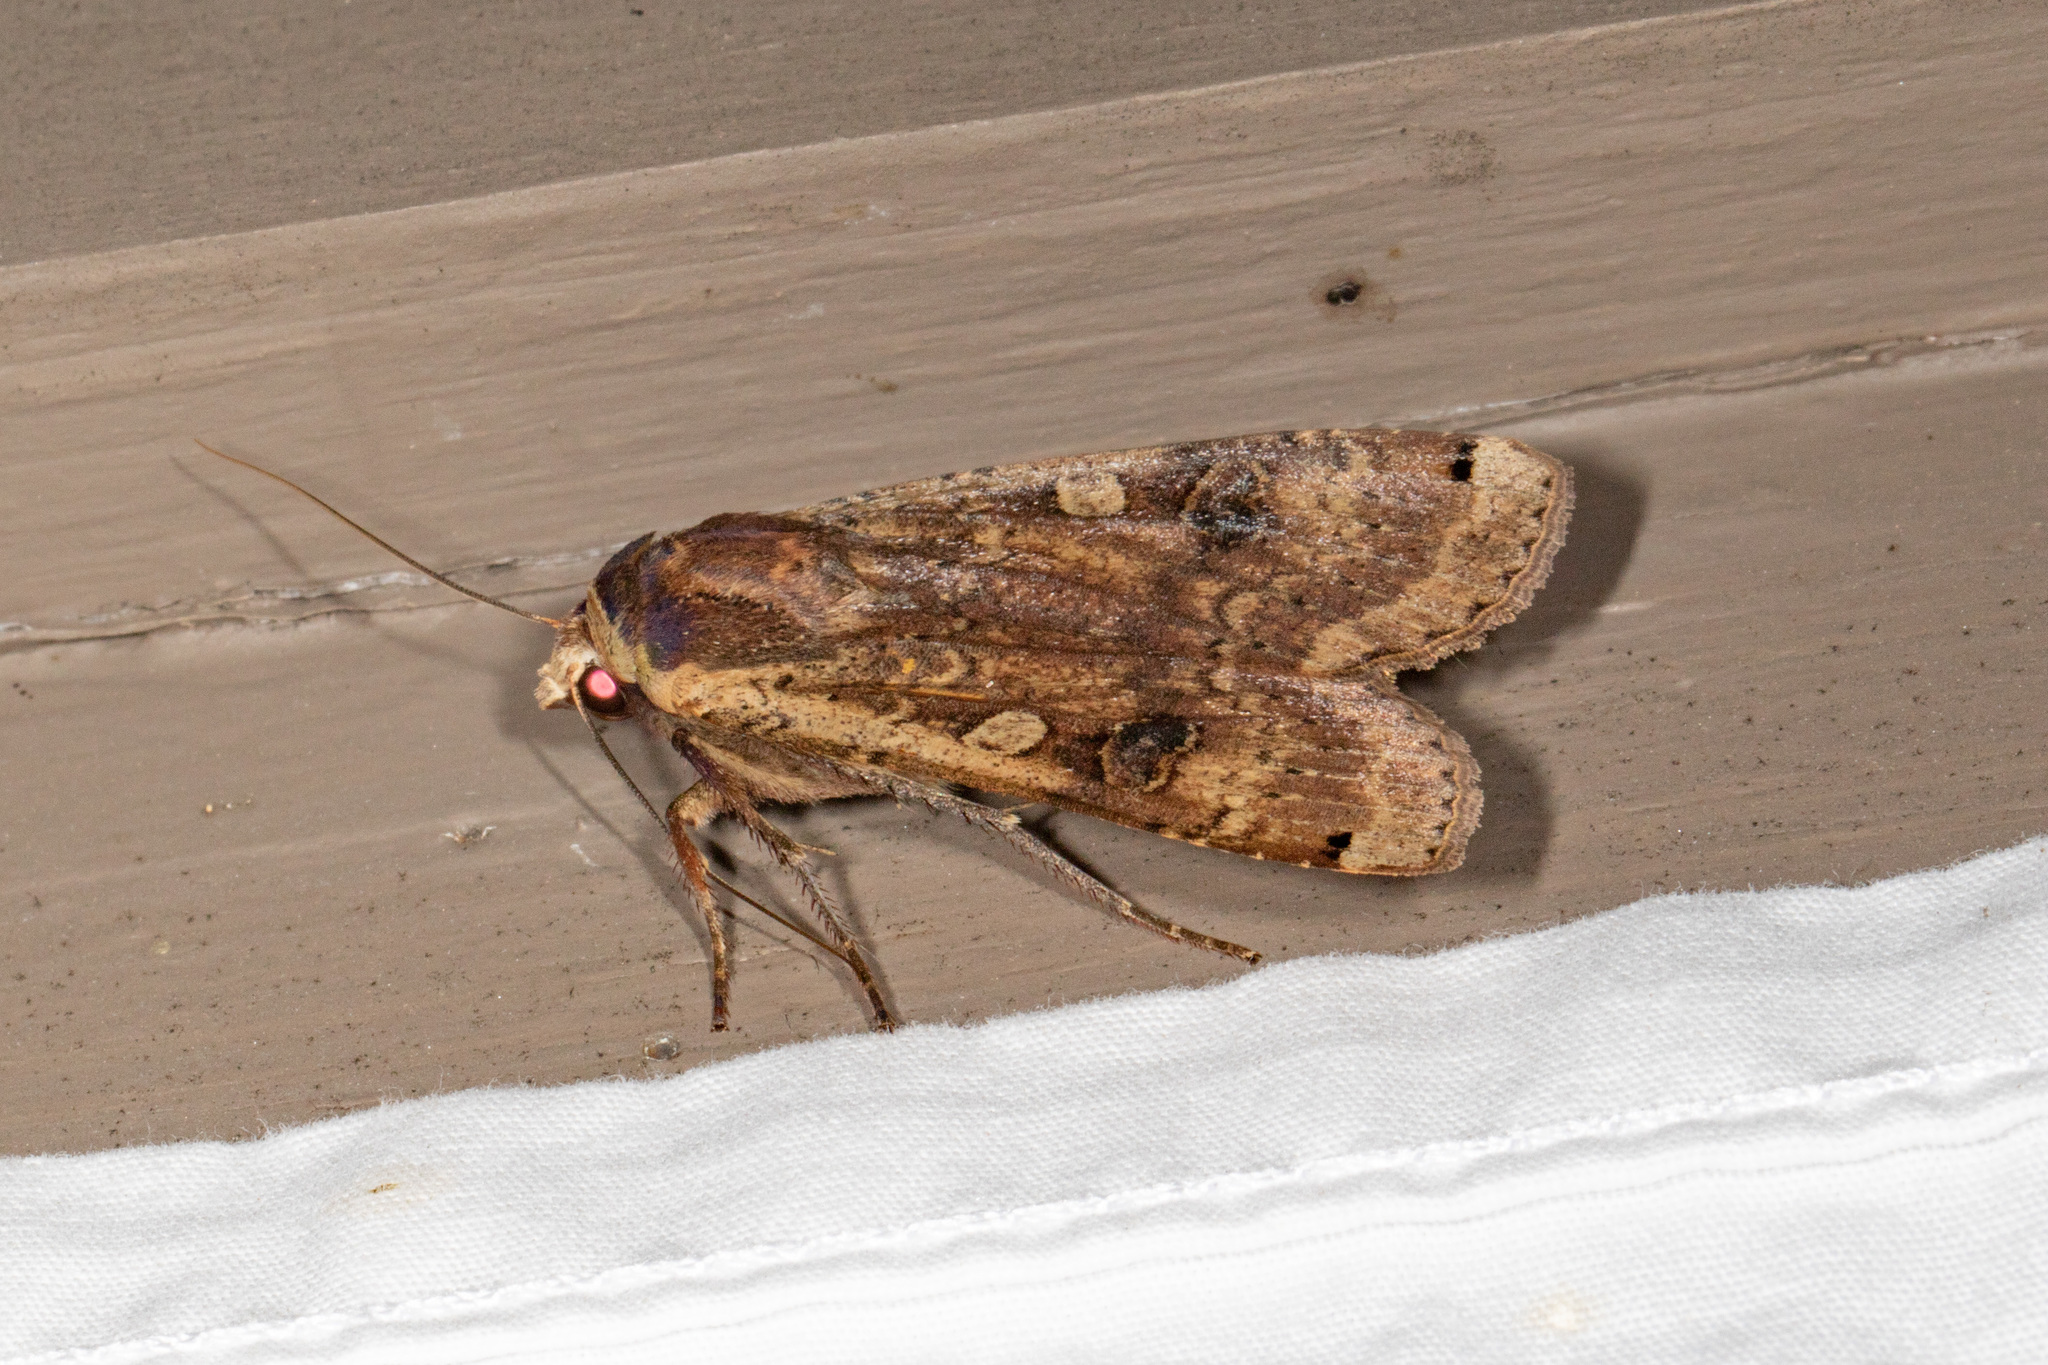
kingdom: Animalia
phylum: Arthropoda
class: Insecta
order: Lepidoptera
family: Noctuidae
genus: Noctua
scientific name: Noctua pronuba
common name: Large yellow underwing
